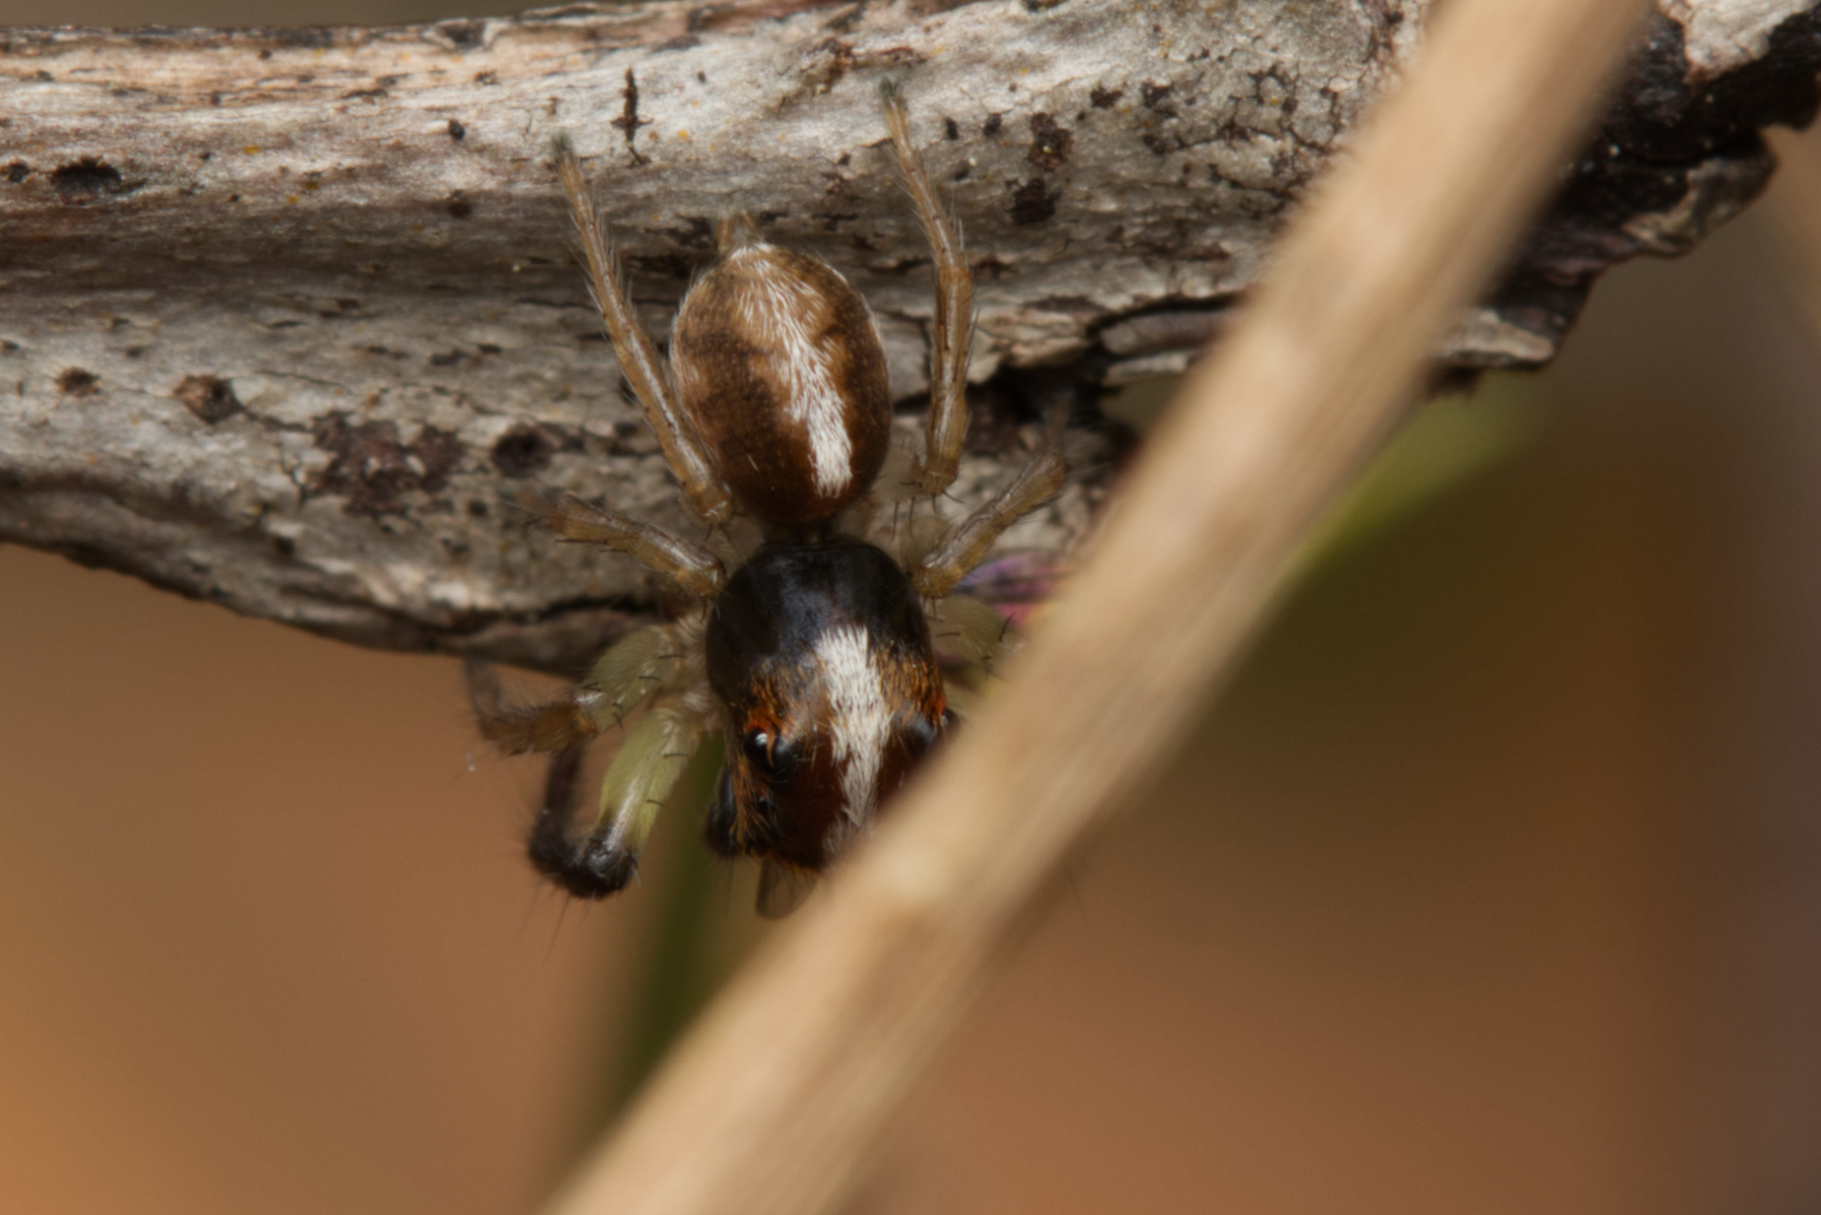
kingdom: Animalia
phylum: Arthropoda
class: Arachnida
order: Araneae
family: Salticidae
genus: Prostheclina
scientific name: Prostheclina amplior
